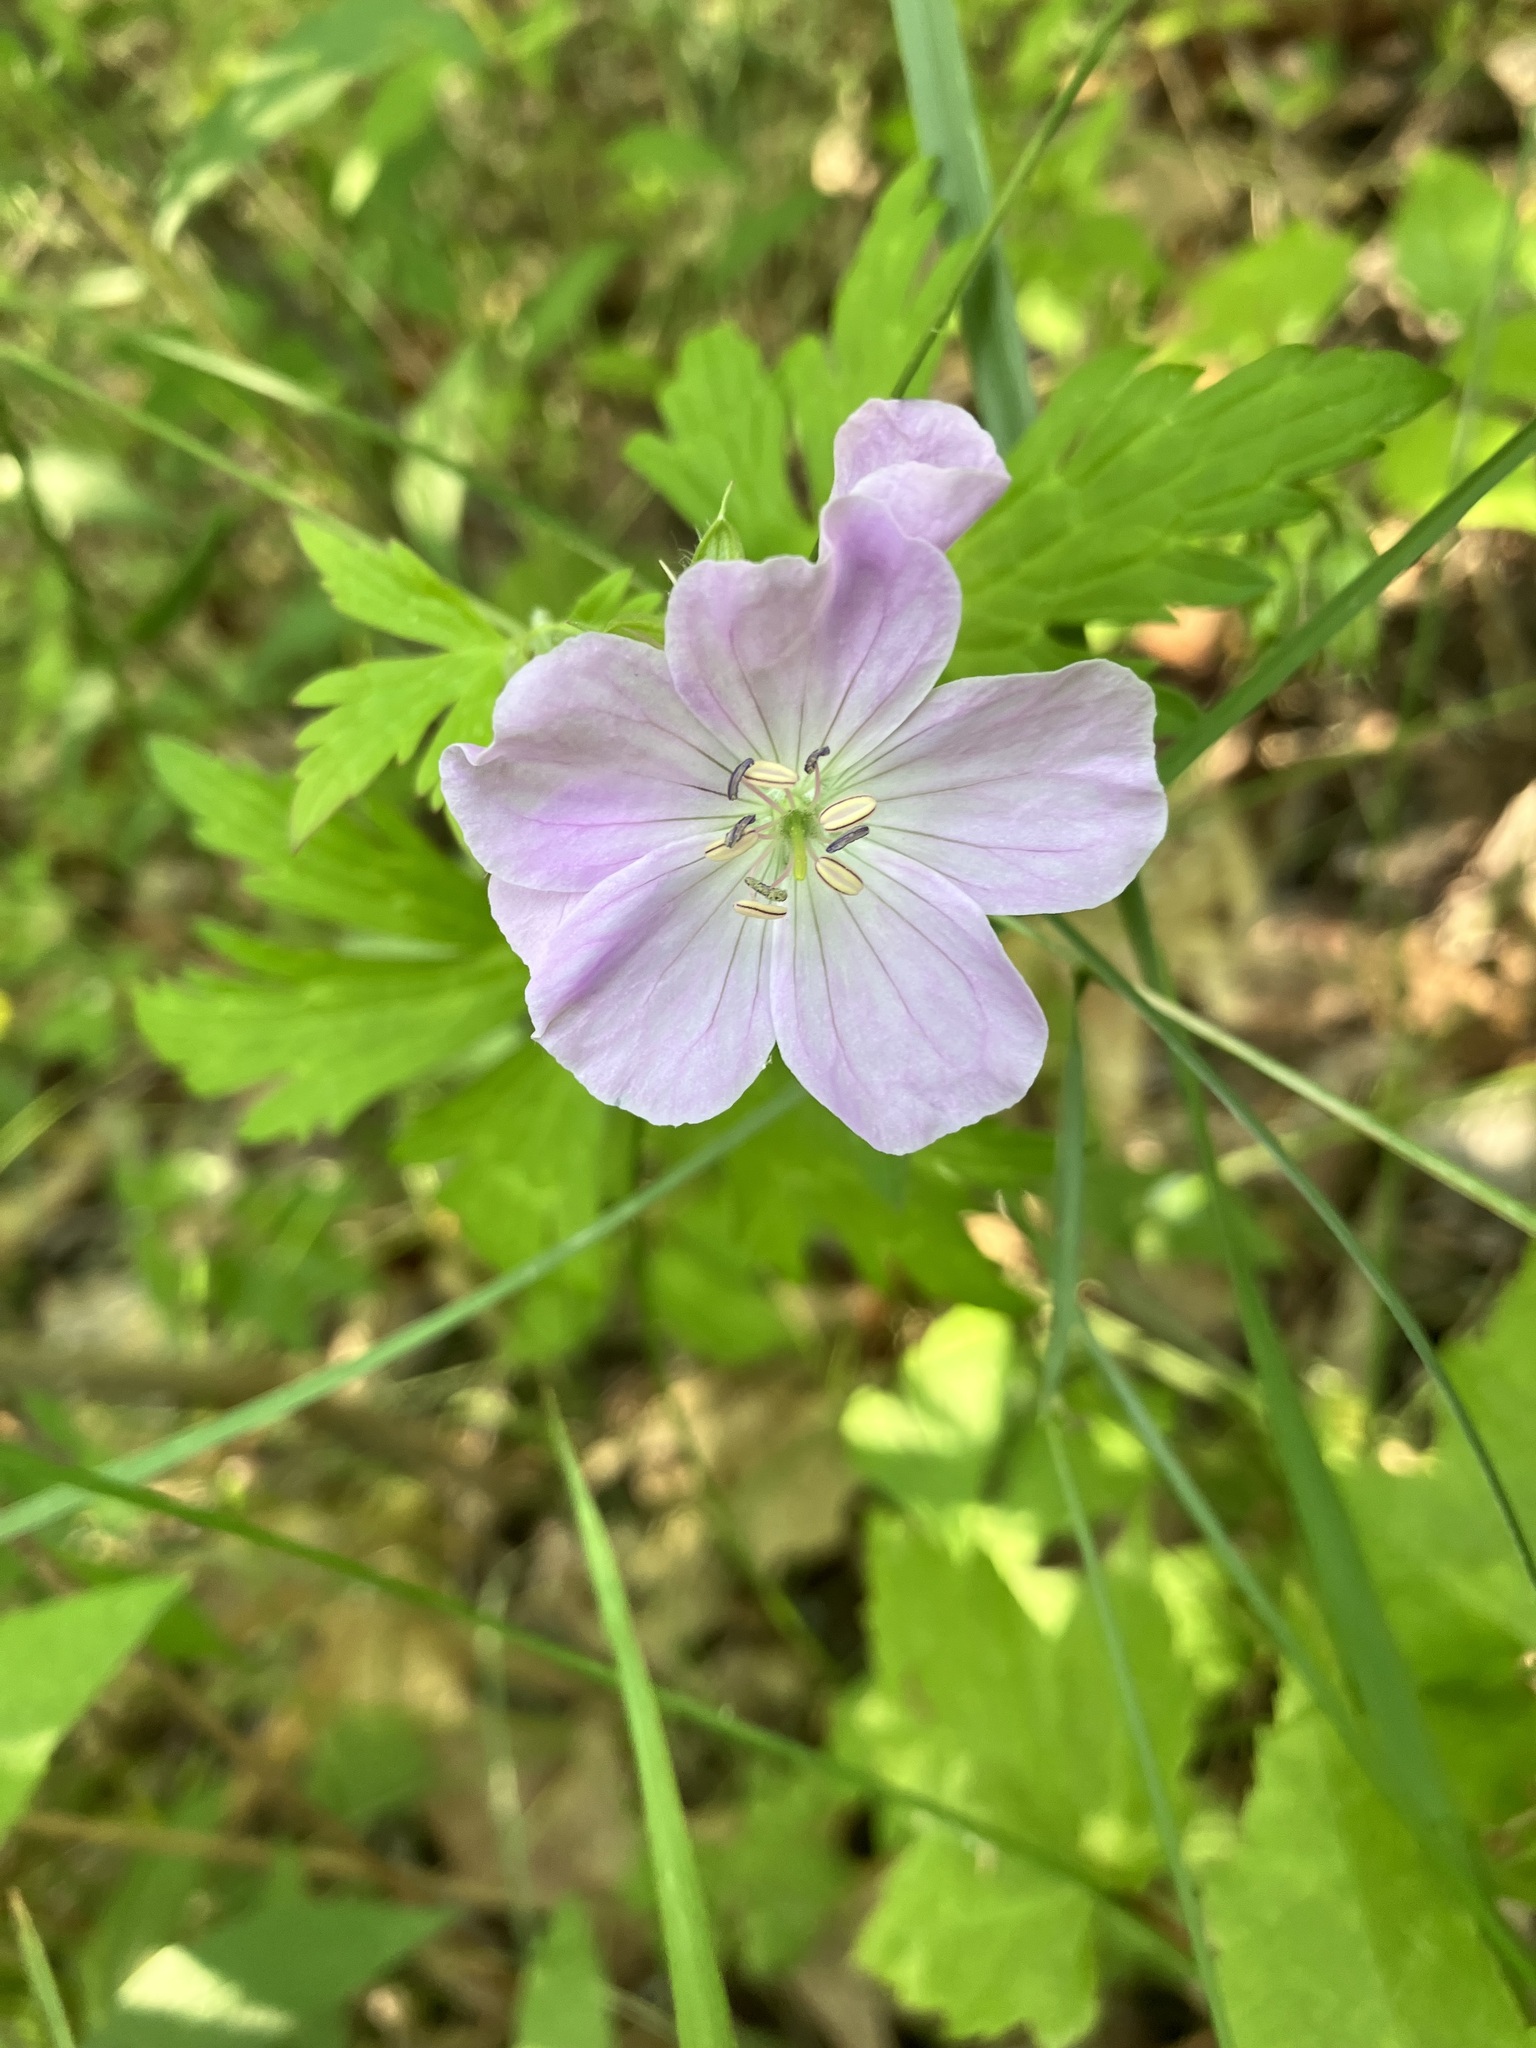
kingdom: Plantae
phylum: Tracheophyta
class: Magnoliopsida
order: Geraniales
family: Geraniaceae
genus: Geranium
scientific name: Geranium maculatum
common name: Spotted geranium
